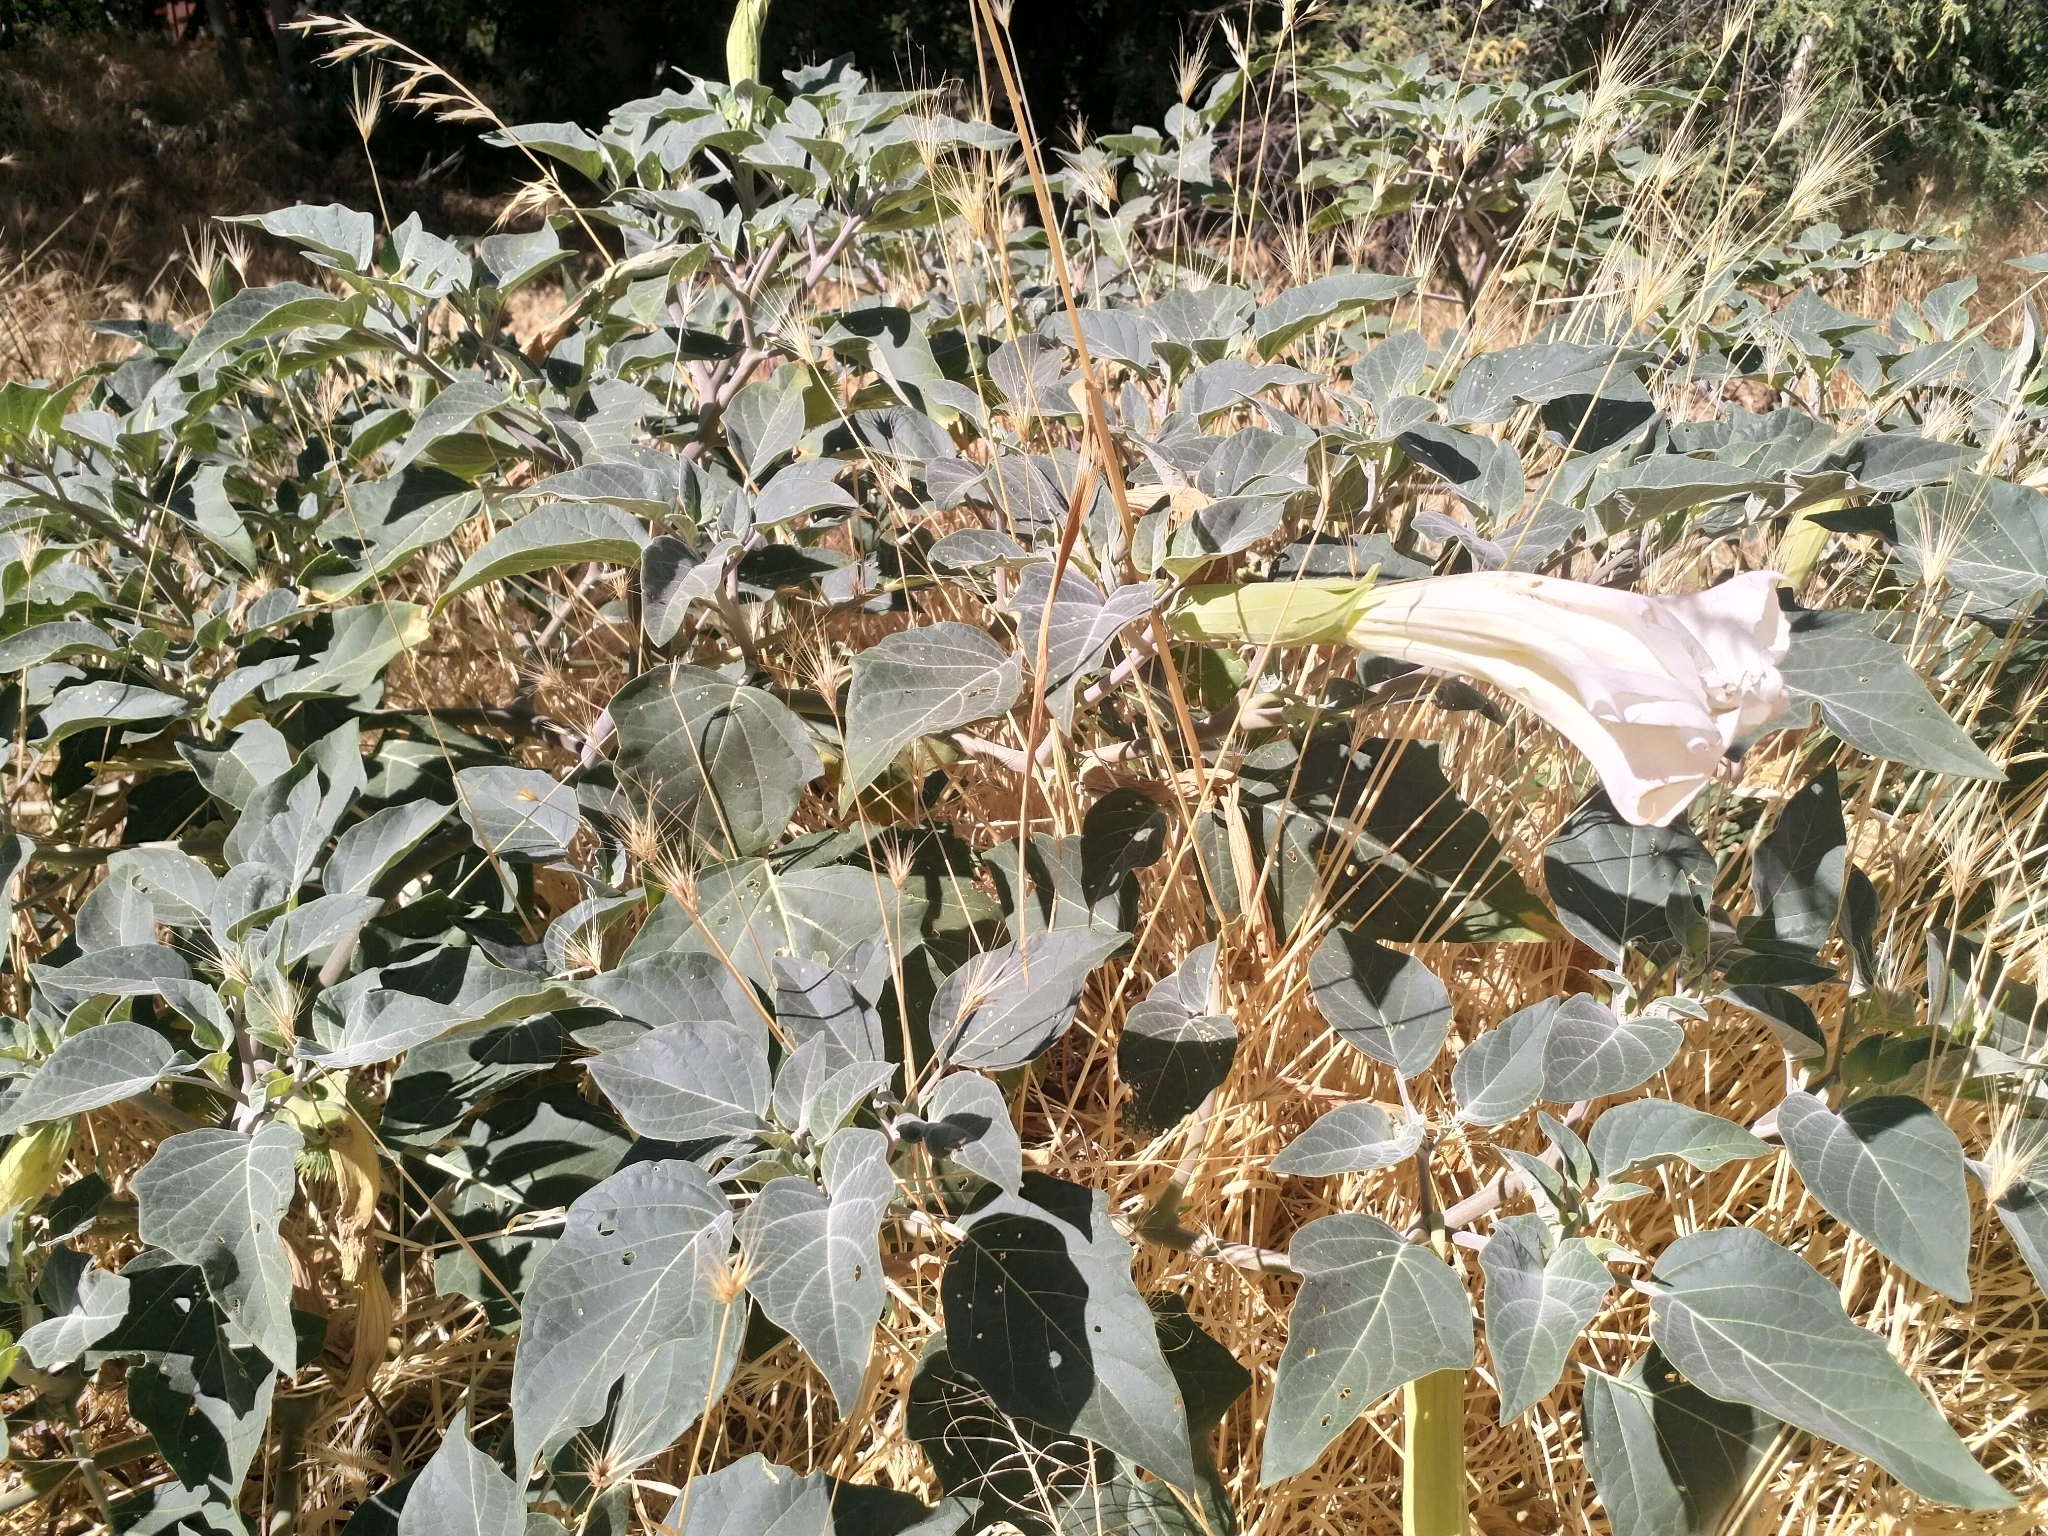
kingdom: Plantae
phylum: Tracheophyta
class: Magnoliopsida
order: Solanales
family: Solanaceae
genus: Datura
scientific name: Datura wrightii
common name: Sacred thorn-apple
